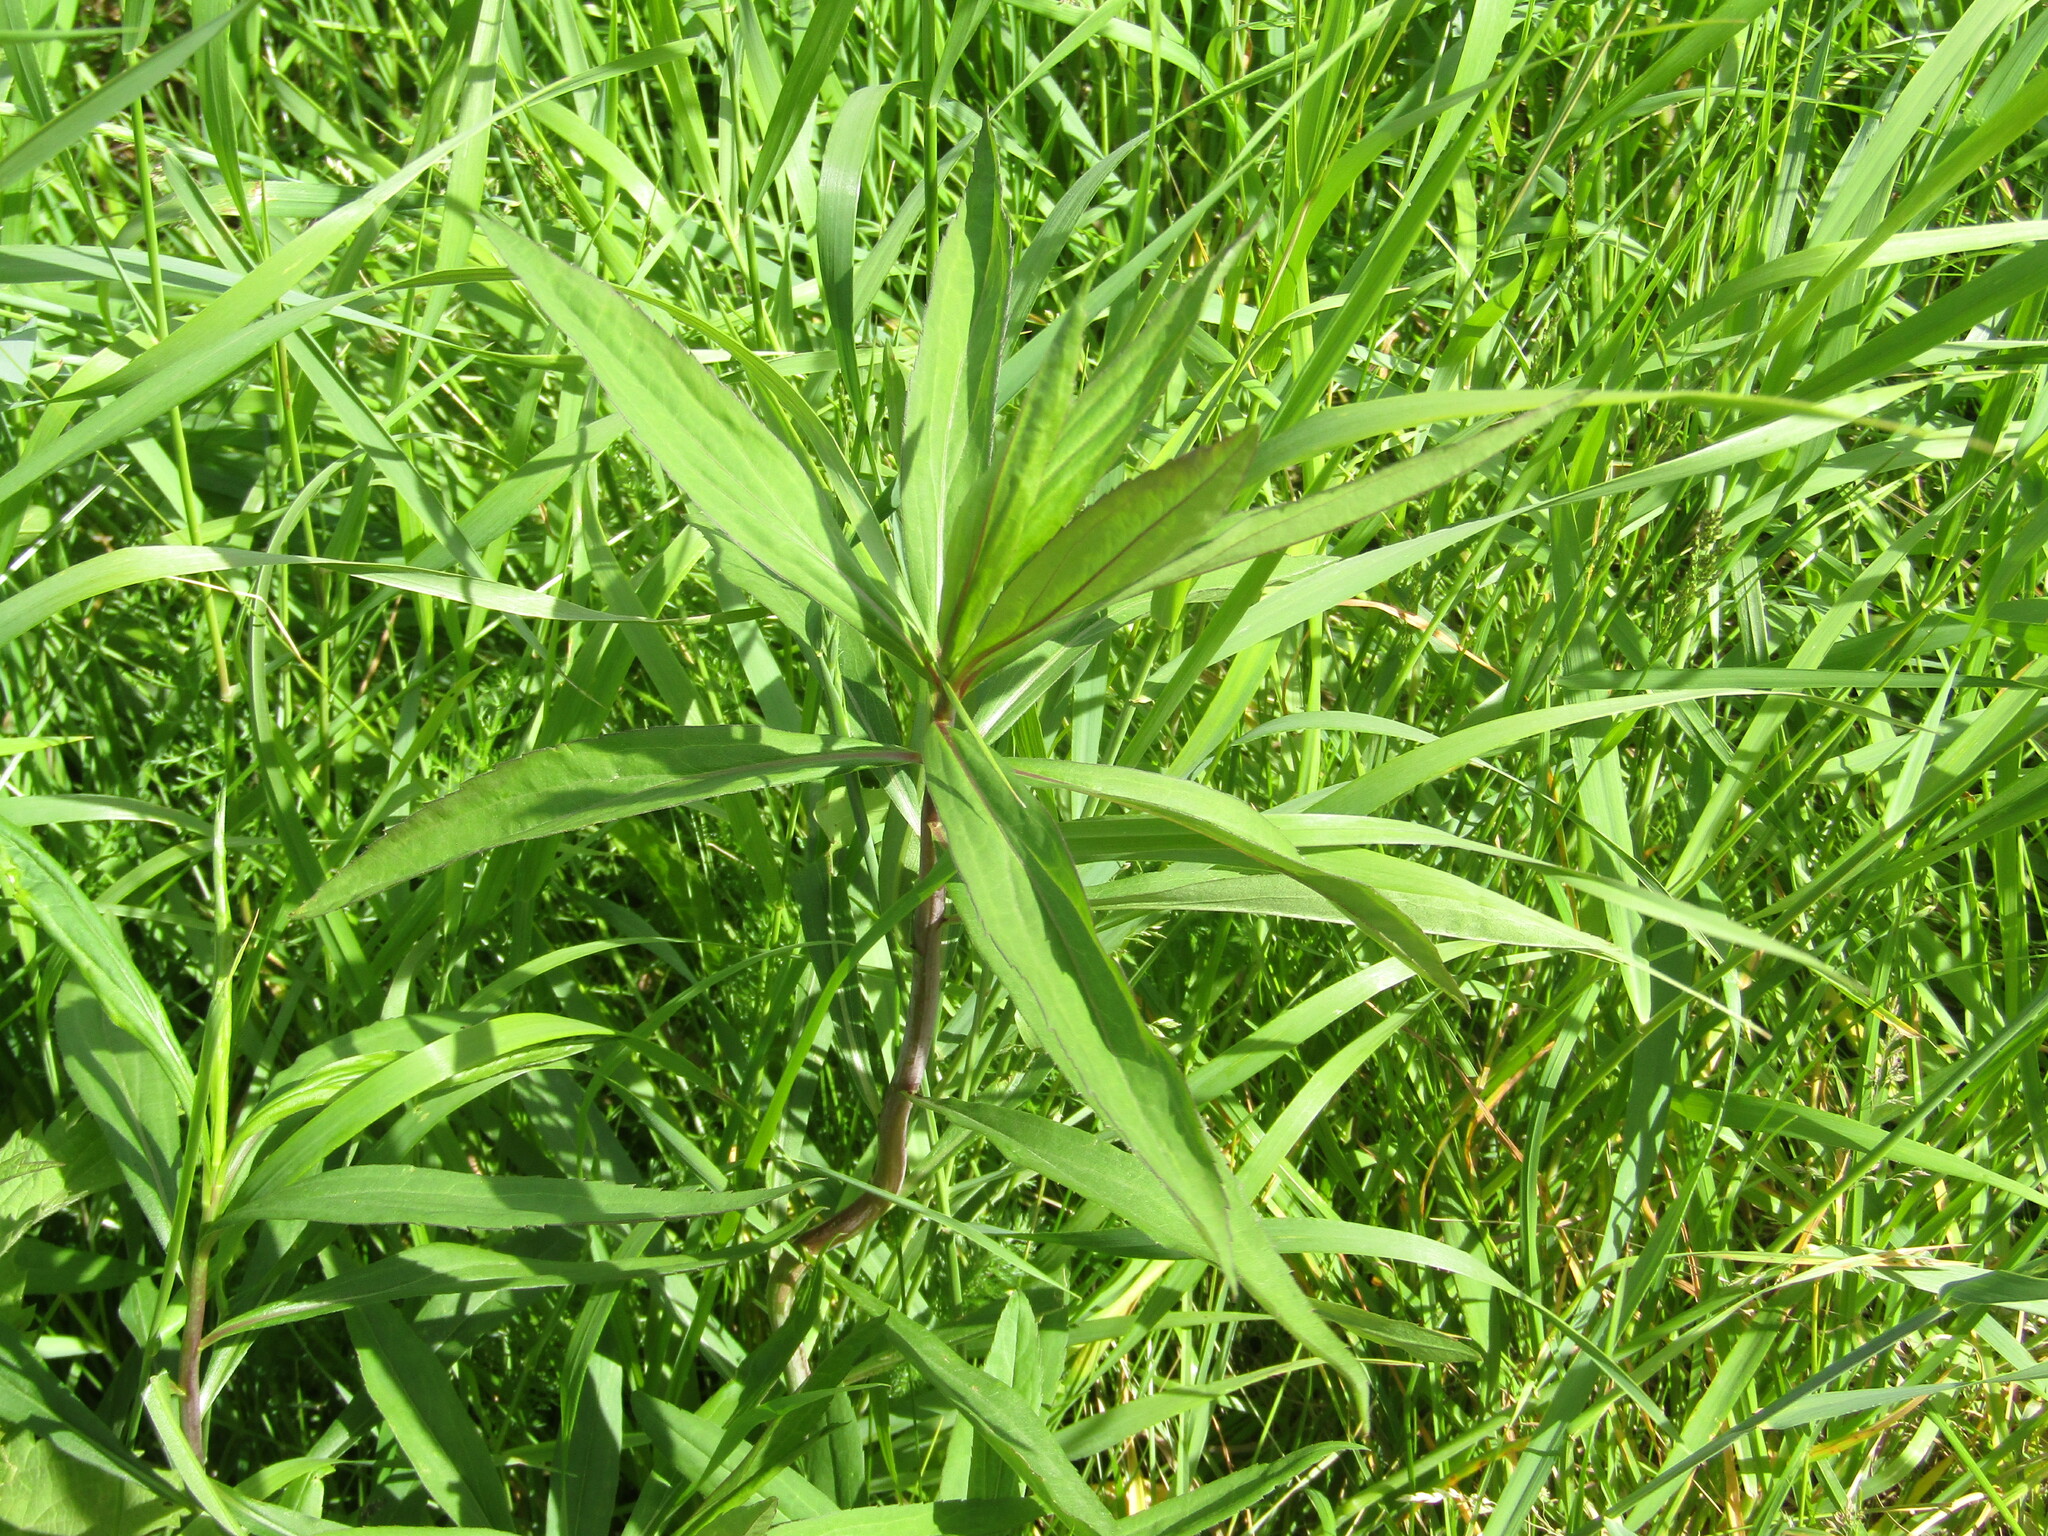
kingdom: Plantae
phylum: Tracheophyta
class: Magnoliopsida
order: Asterales
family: Asteraceae
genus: Solidago
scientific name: Solidago gigantea
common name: Giant goldenrod
